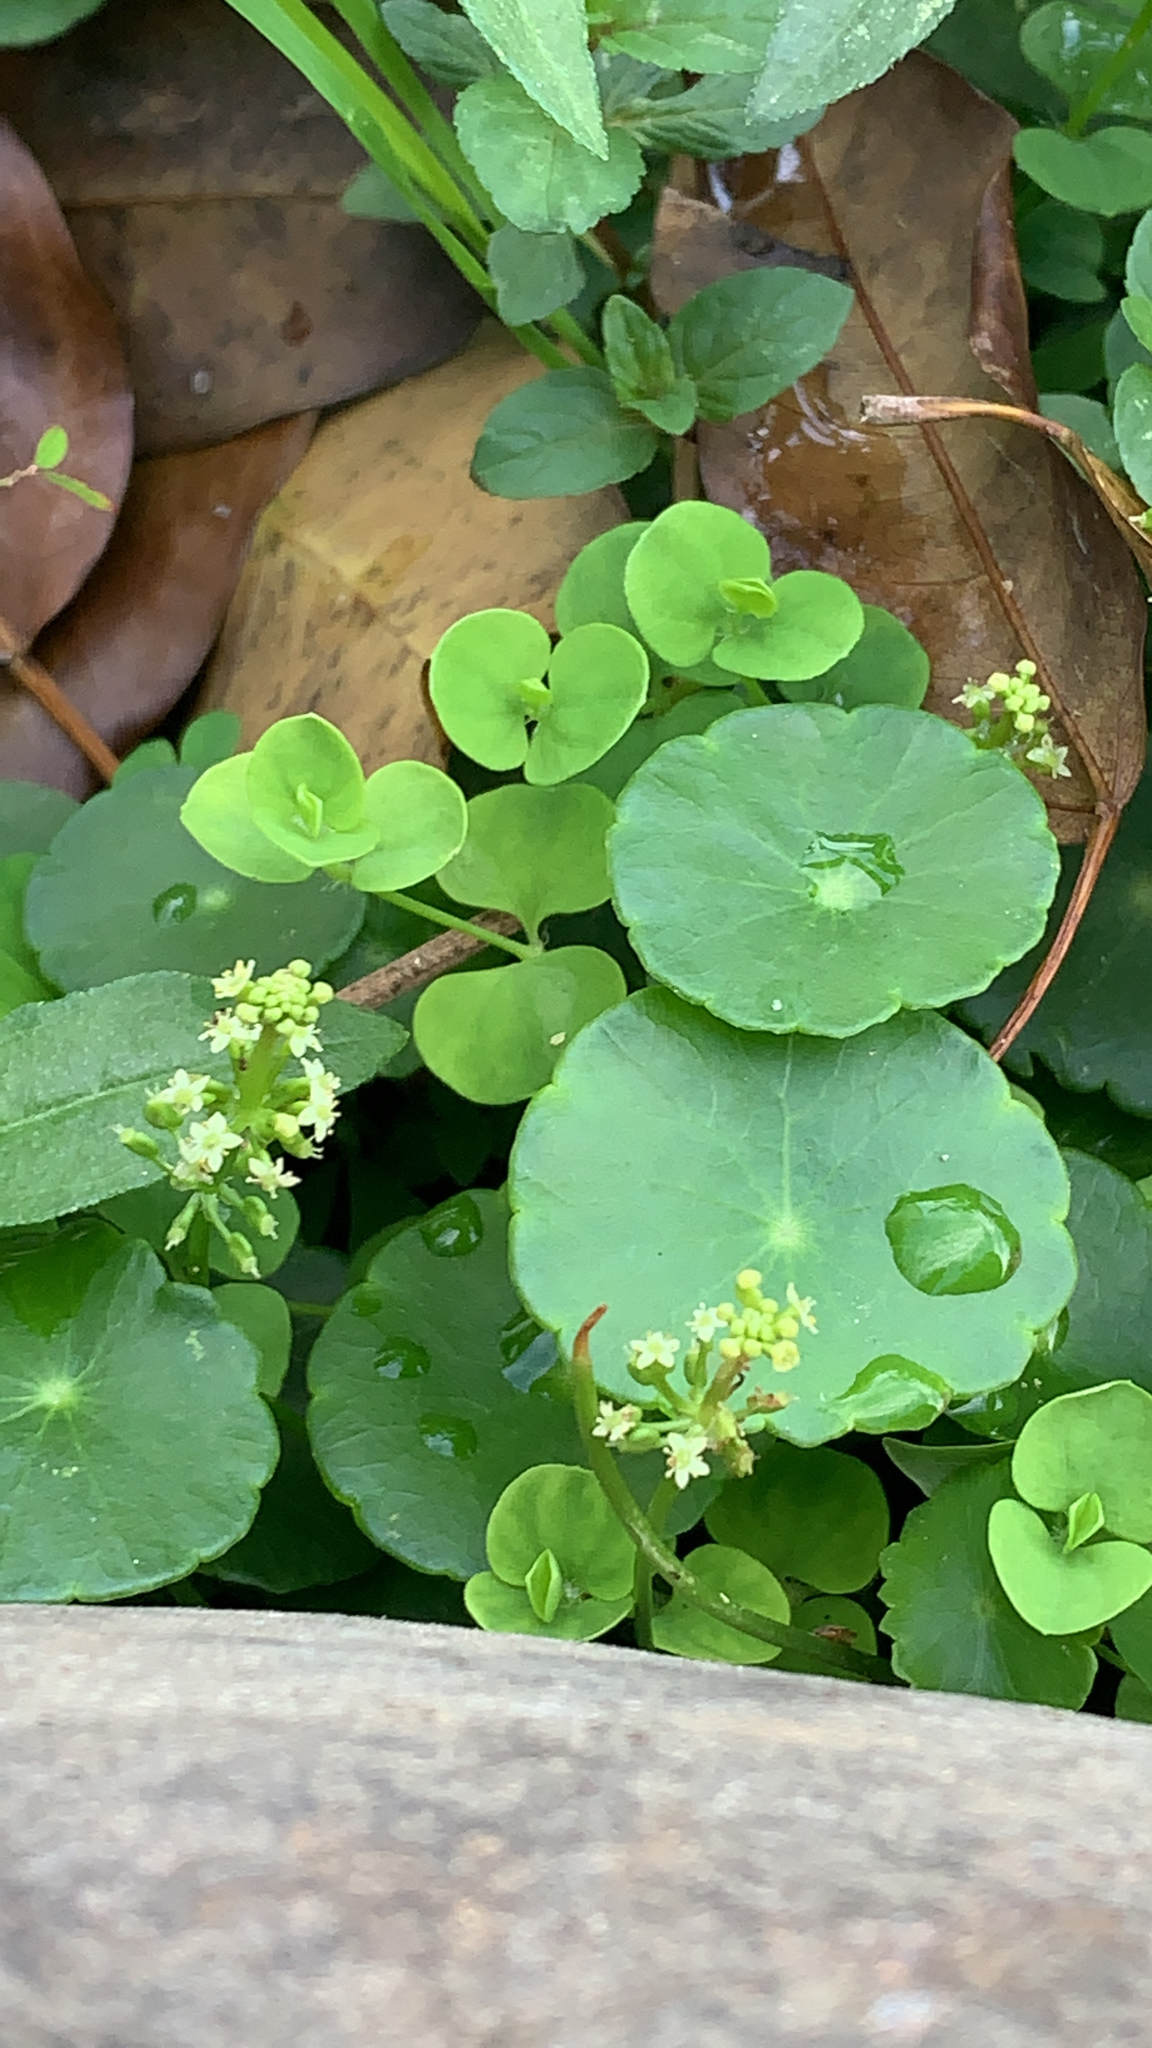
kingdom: Plantae
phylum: Tracheophyta
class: Magnoliopsida
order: Apiales
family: Araliaceae
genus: Hydrocotyle
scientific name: Hydrocotyle verticillata
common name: Whorled marshpennywort
